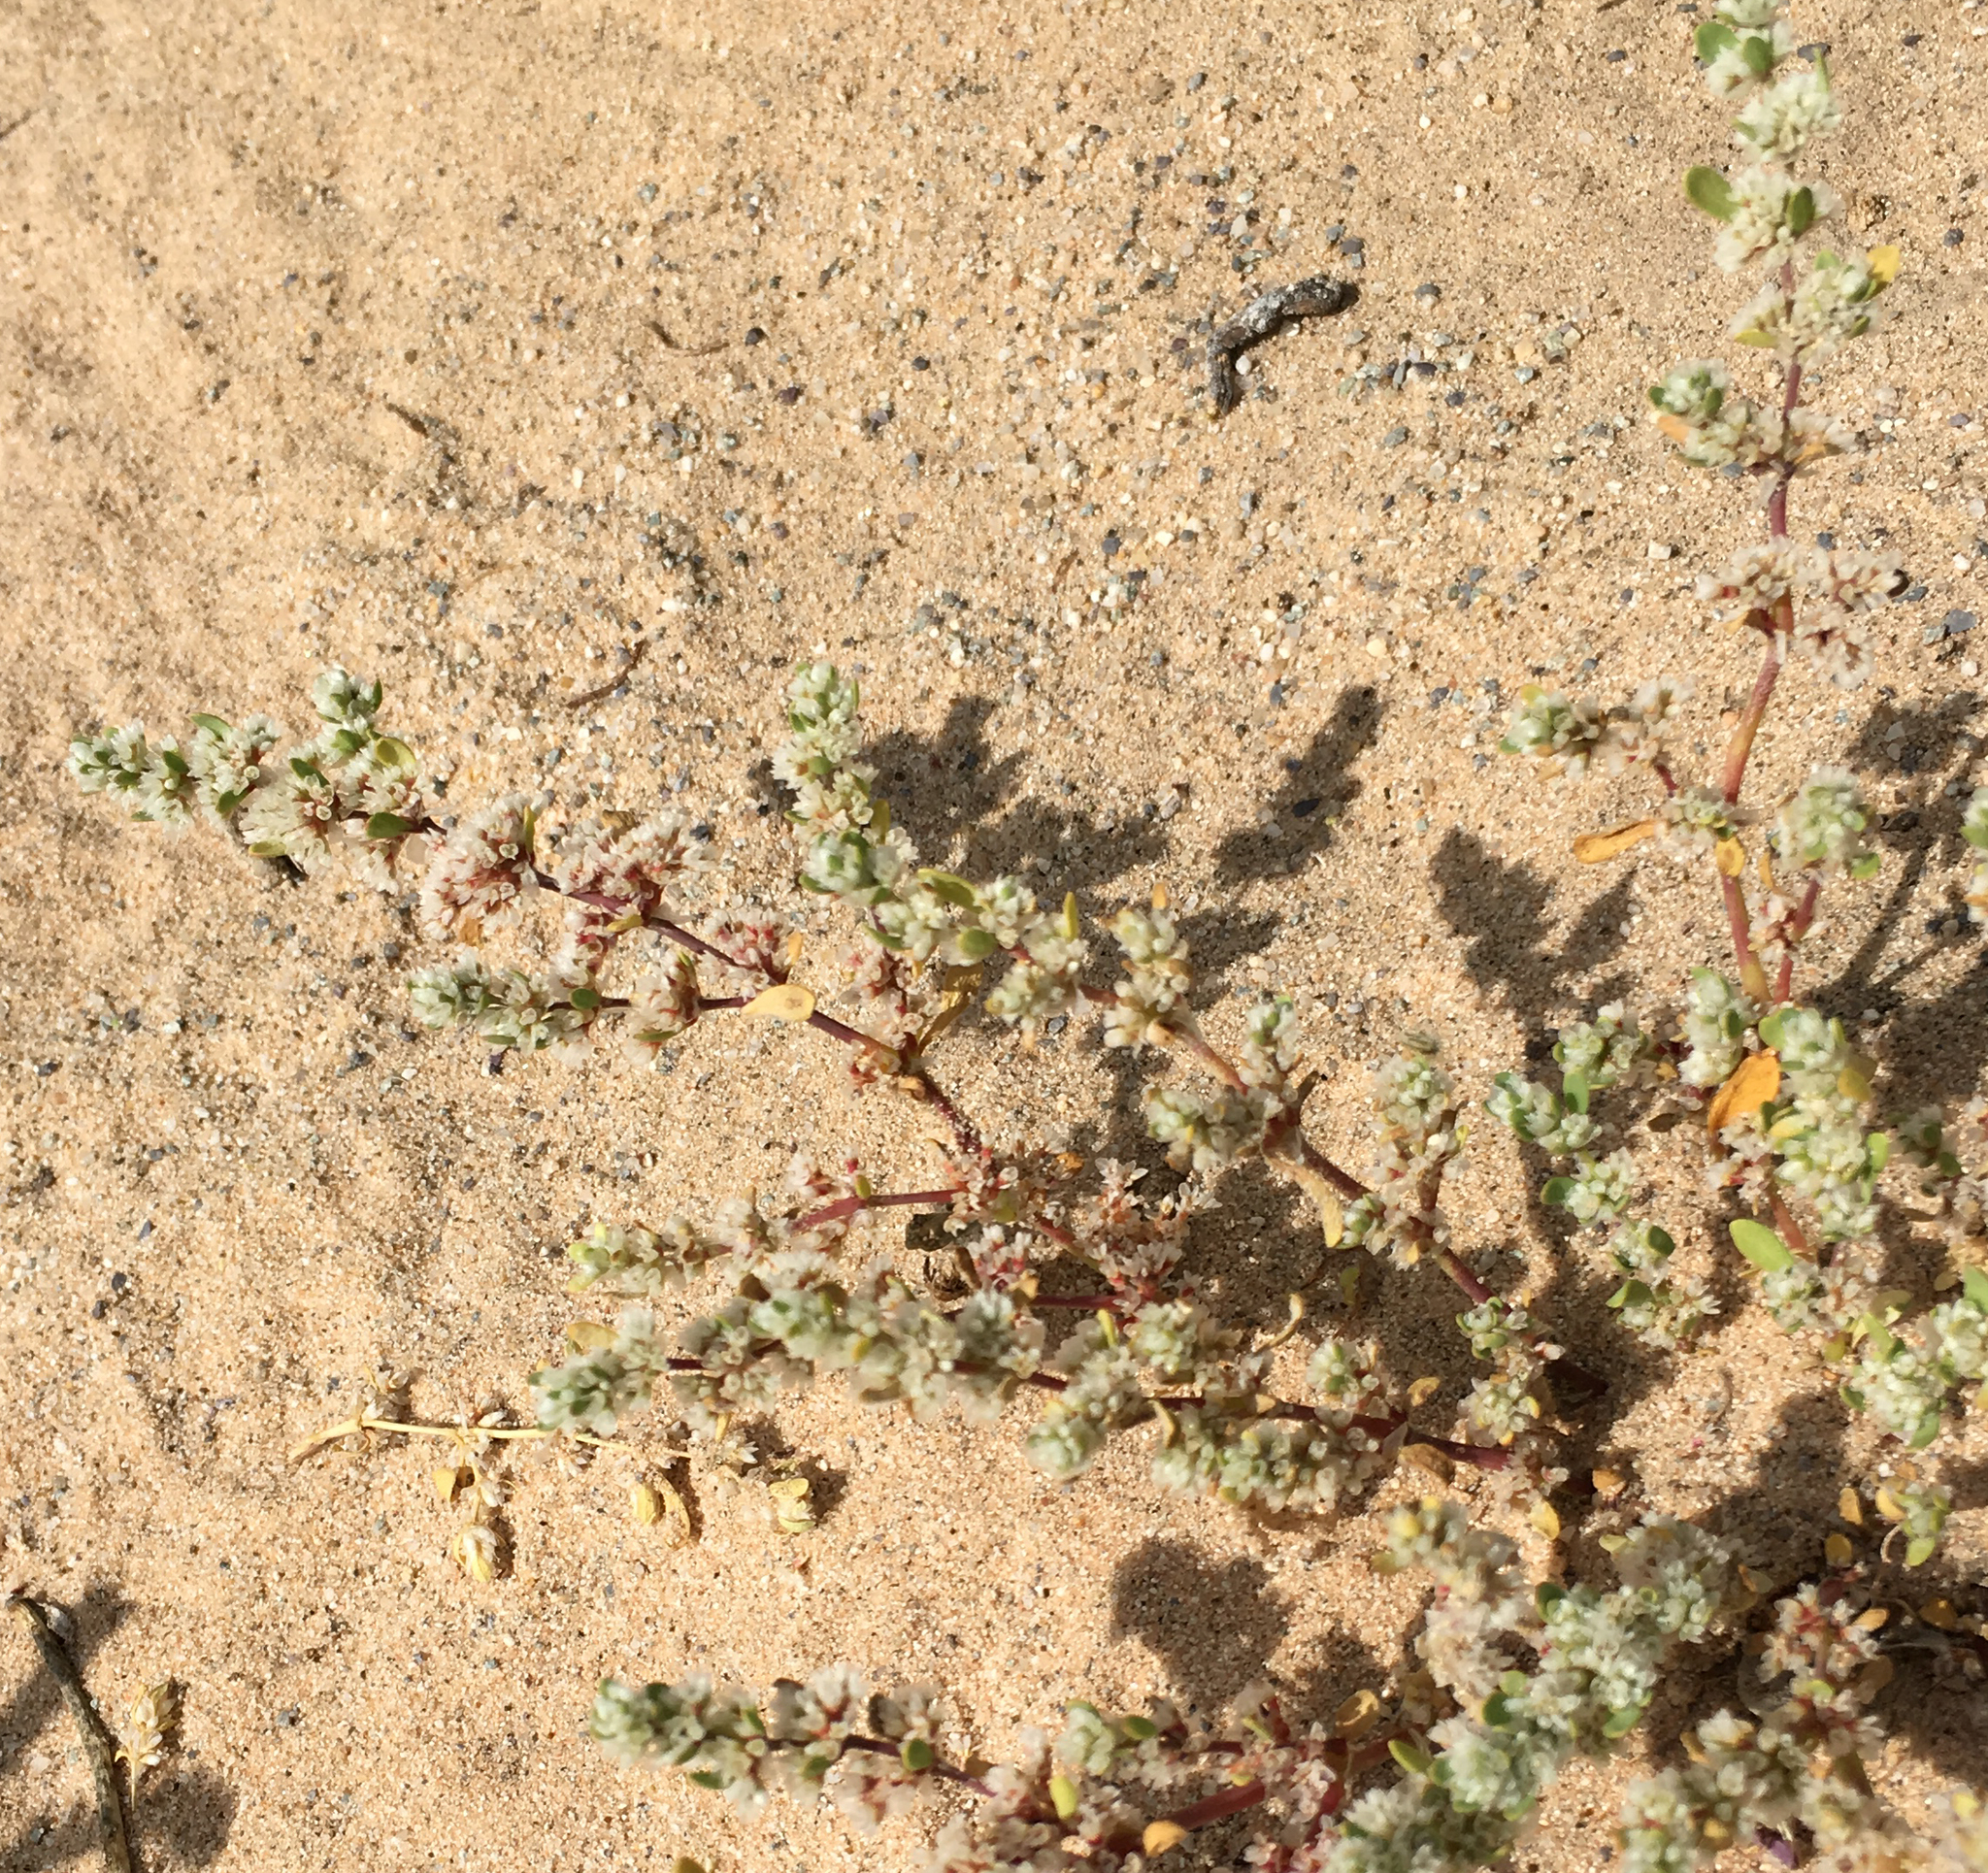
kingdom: Plantae
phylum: Tracheophyta
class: Magnoliopsida
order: Caryophyllales
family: Caryophyllaceae
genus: Achyronychia
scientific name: Achyronychia cooperi
